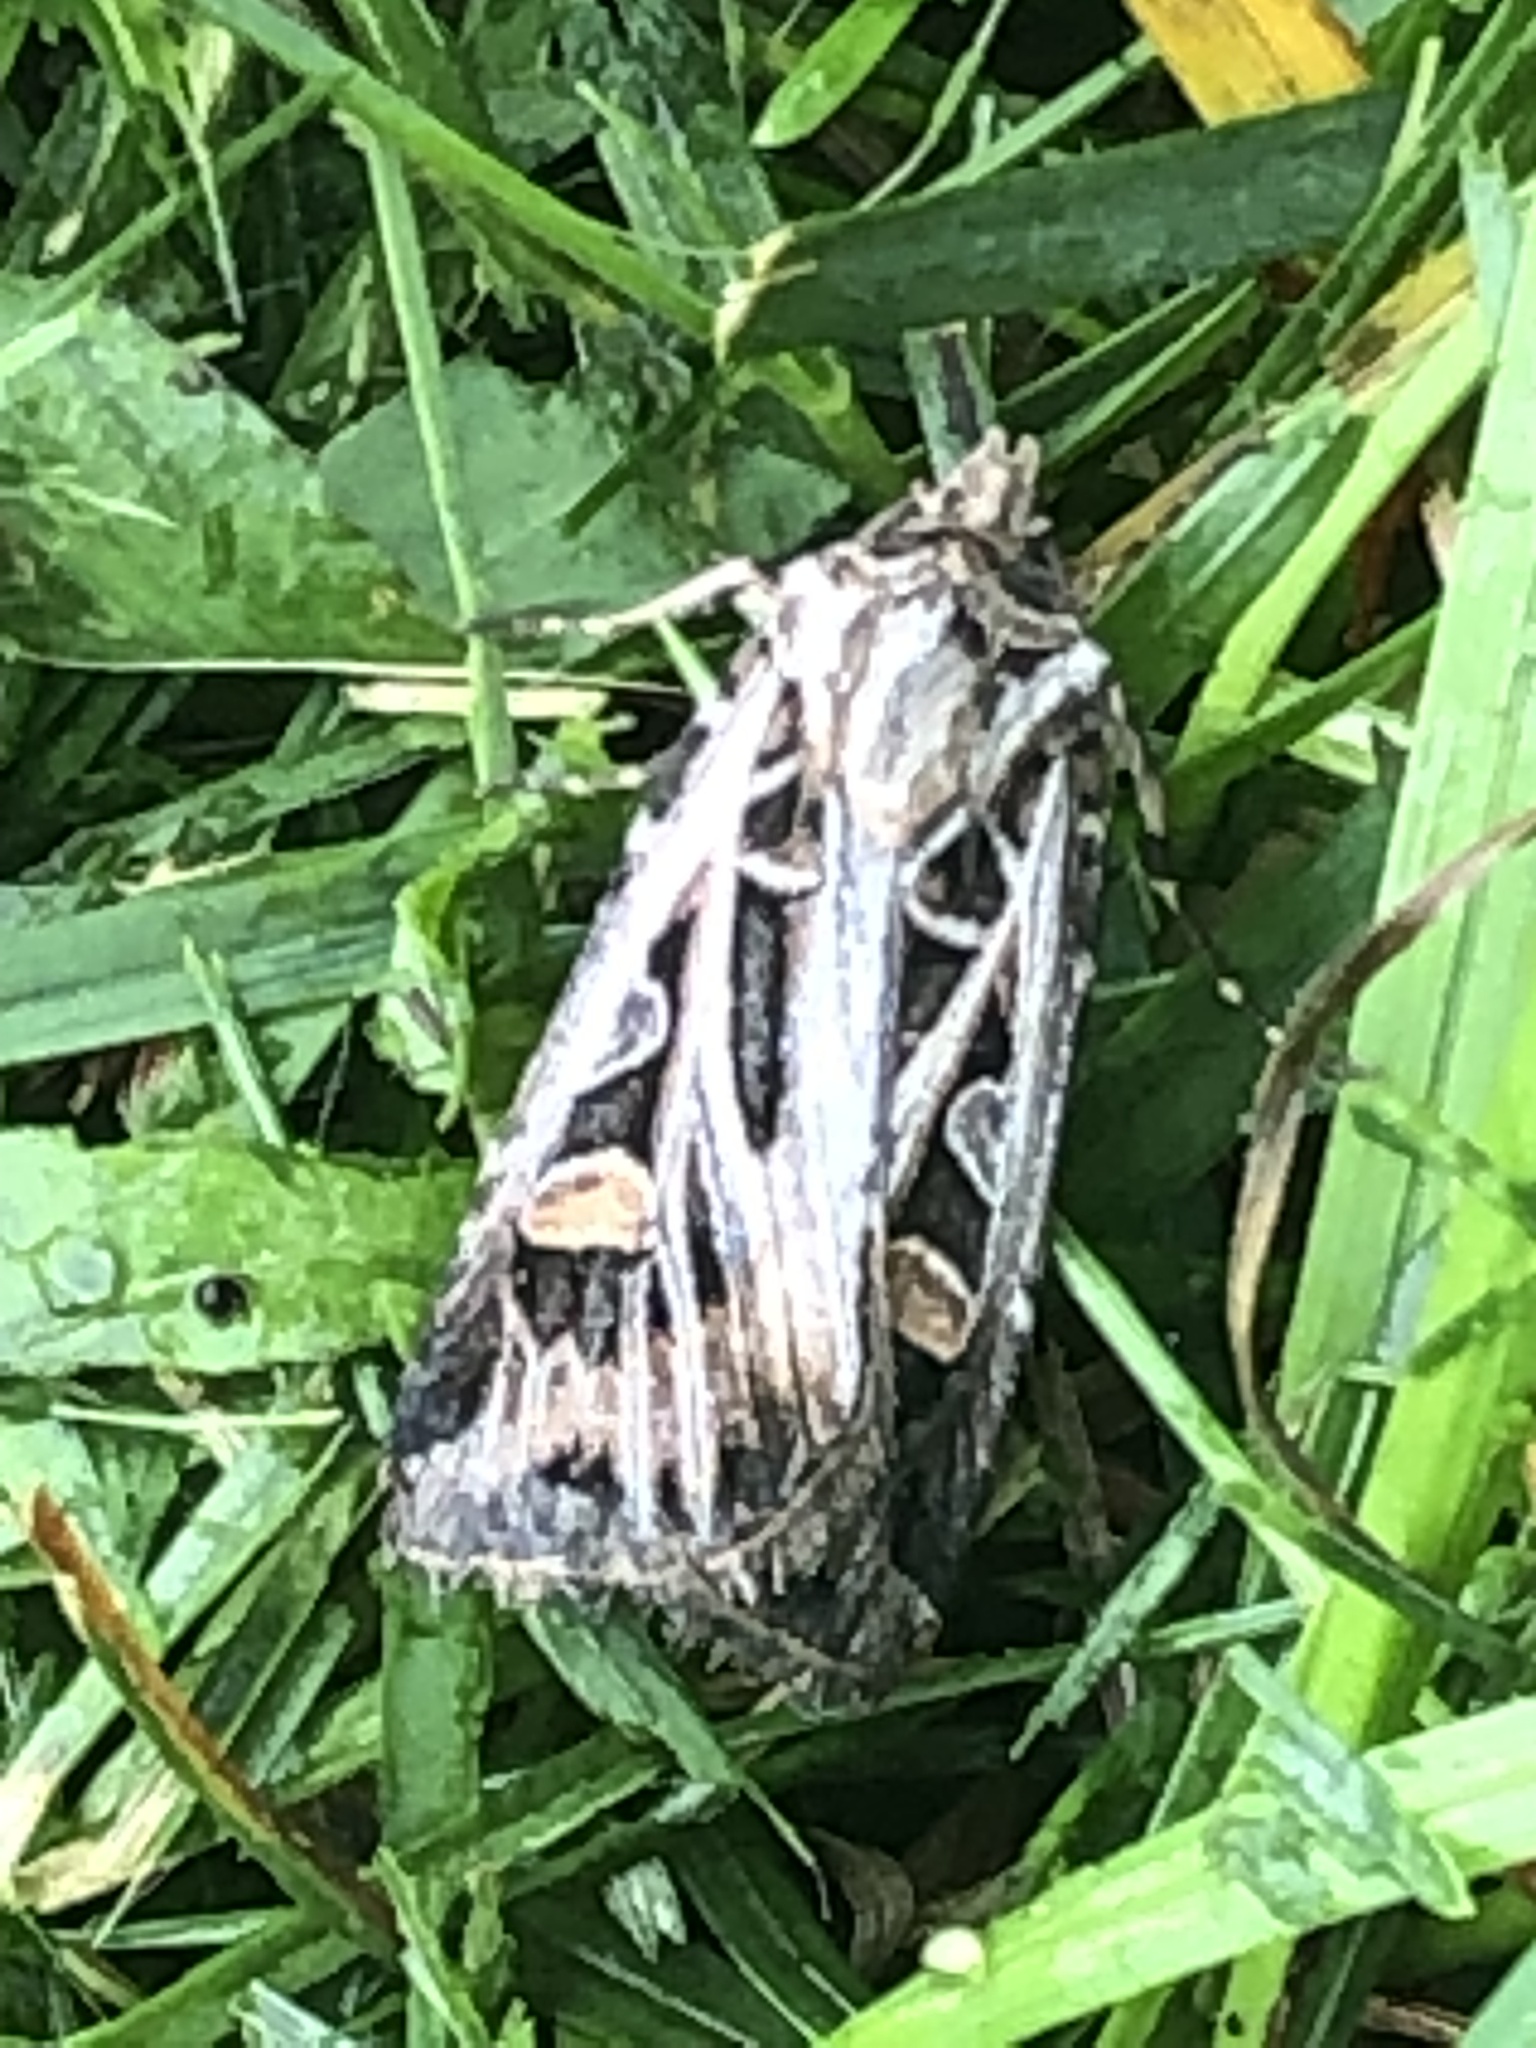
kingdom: Animalia
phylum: Arthropoda
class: Insecta
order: Lepidoptera
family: Noctuidae
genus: Feltia
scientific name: Feltia jaculifera
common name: Dingy cutworm moth
